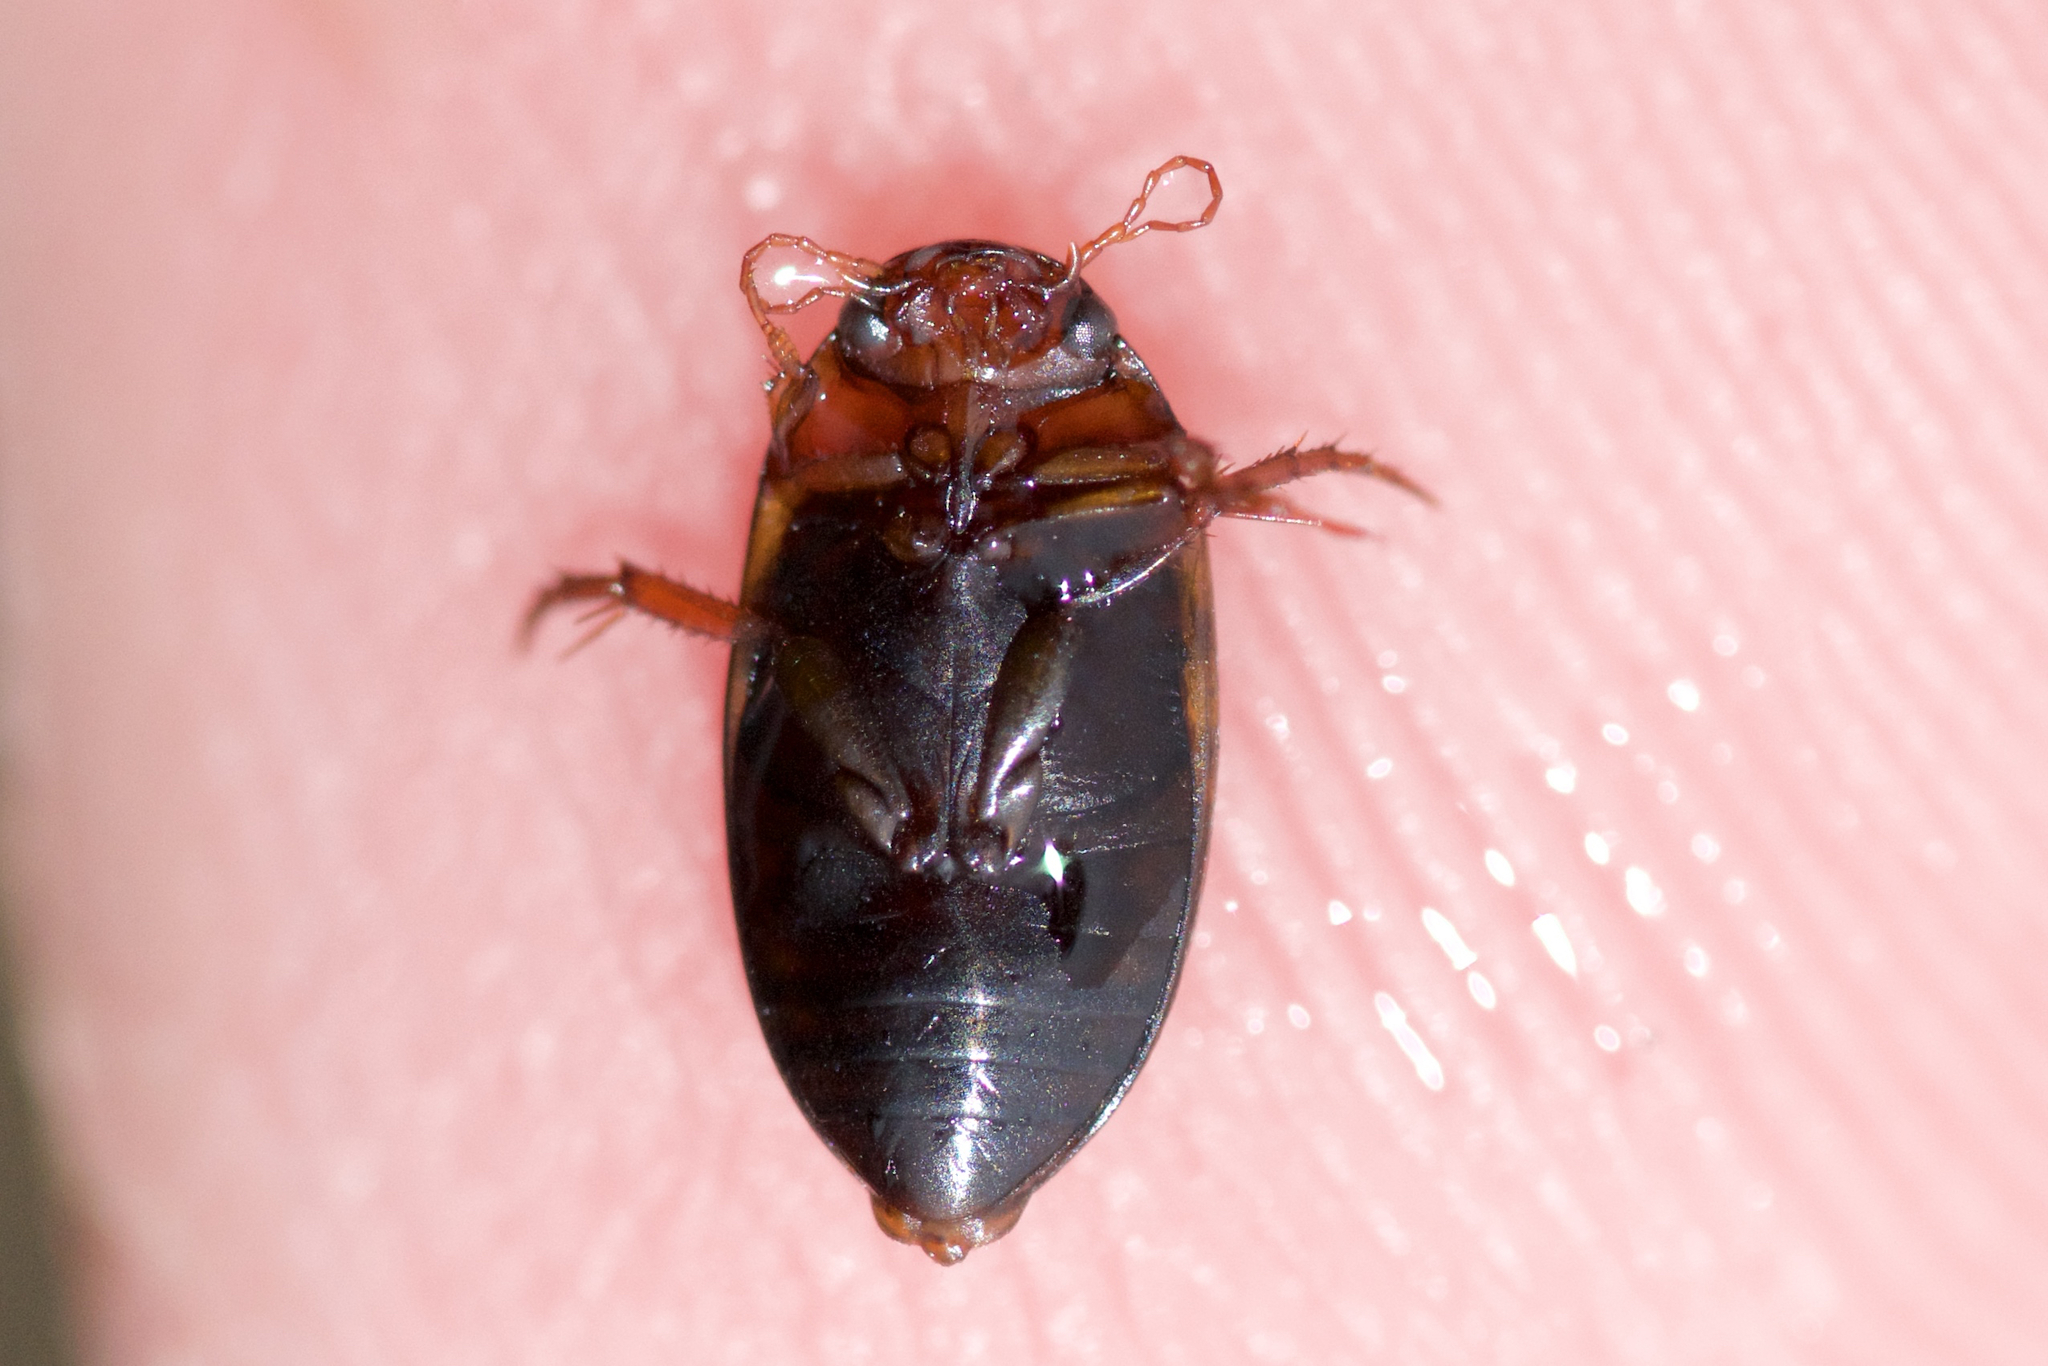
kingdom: Animalia
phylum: Arthropoda
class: Insecta
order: Coleoptera
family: Dytiscidae
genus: Copelatus
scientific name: Copelatus glyphicus
